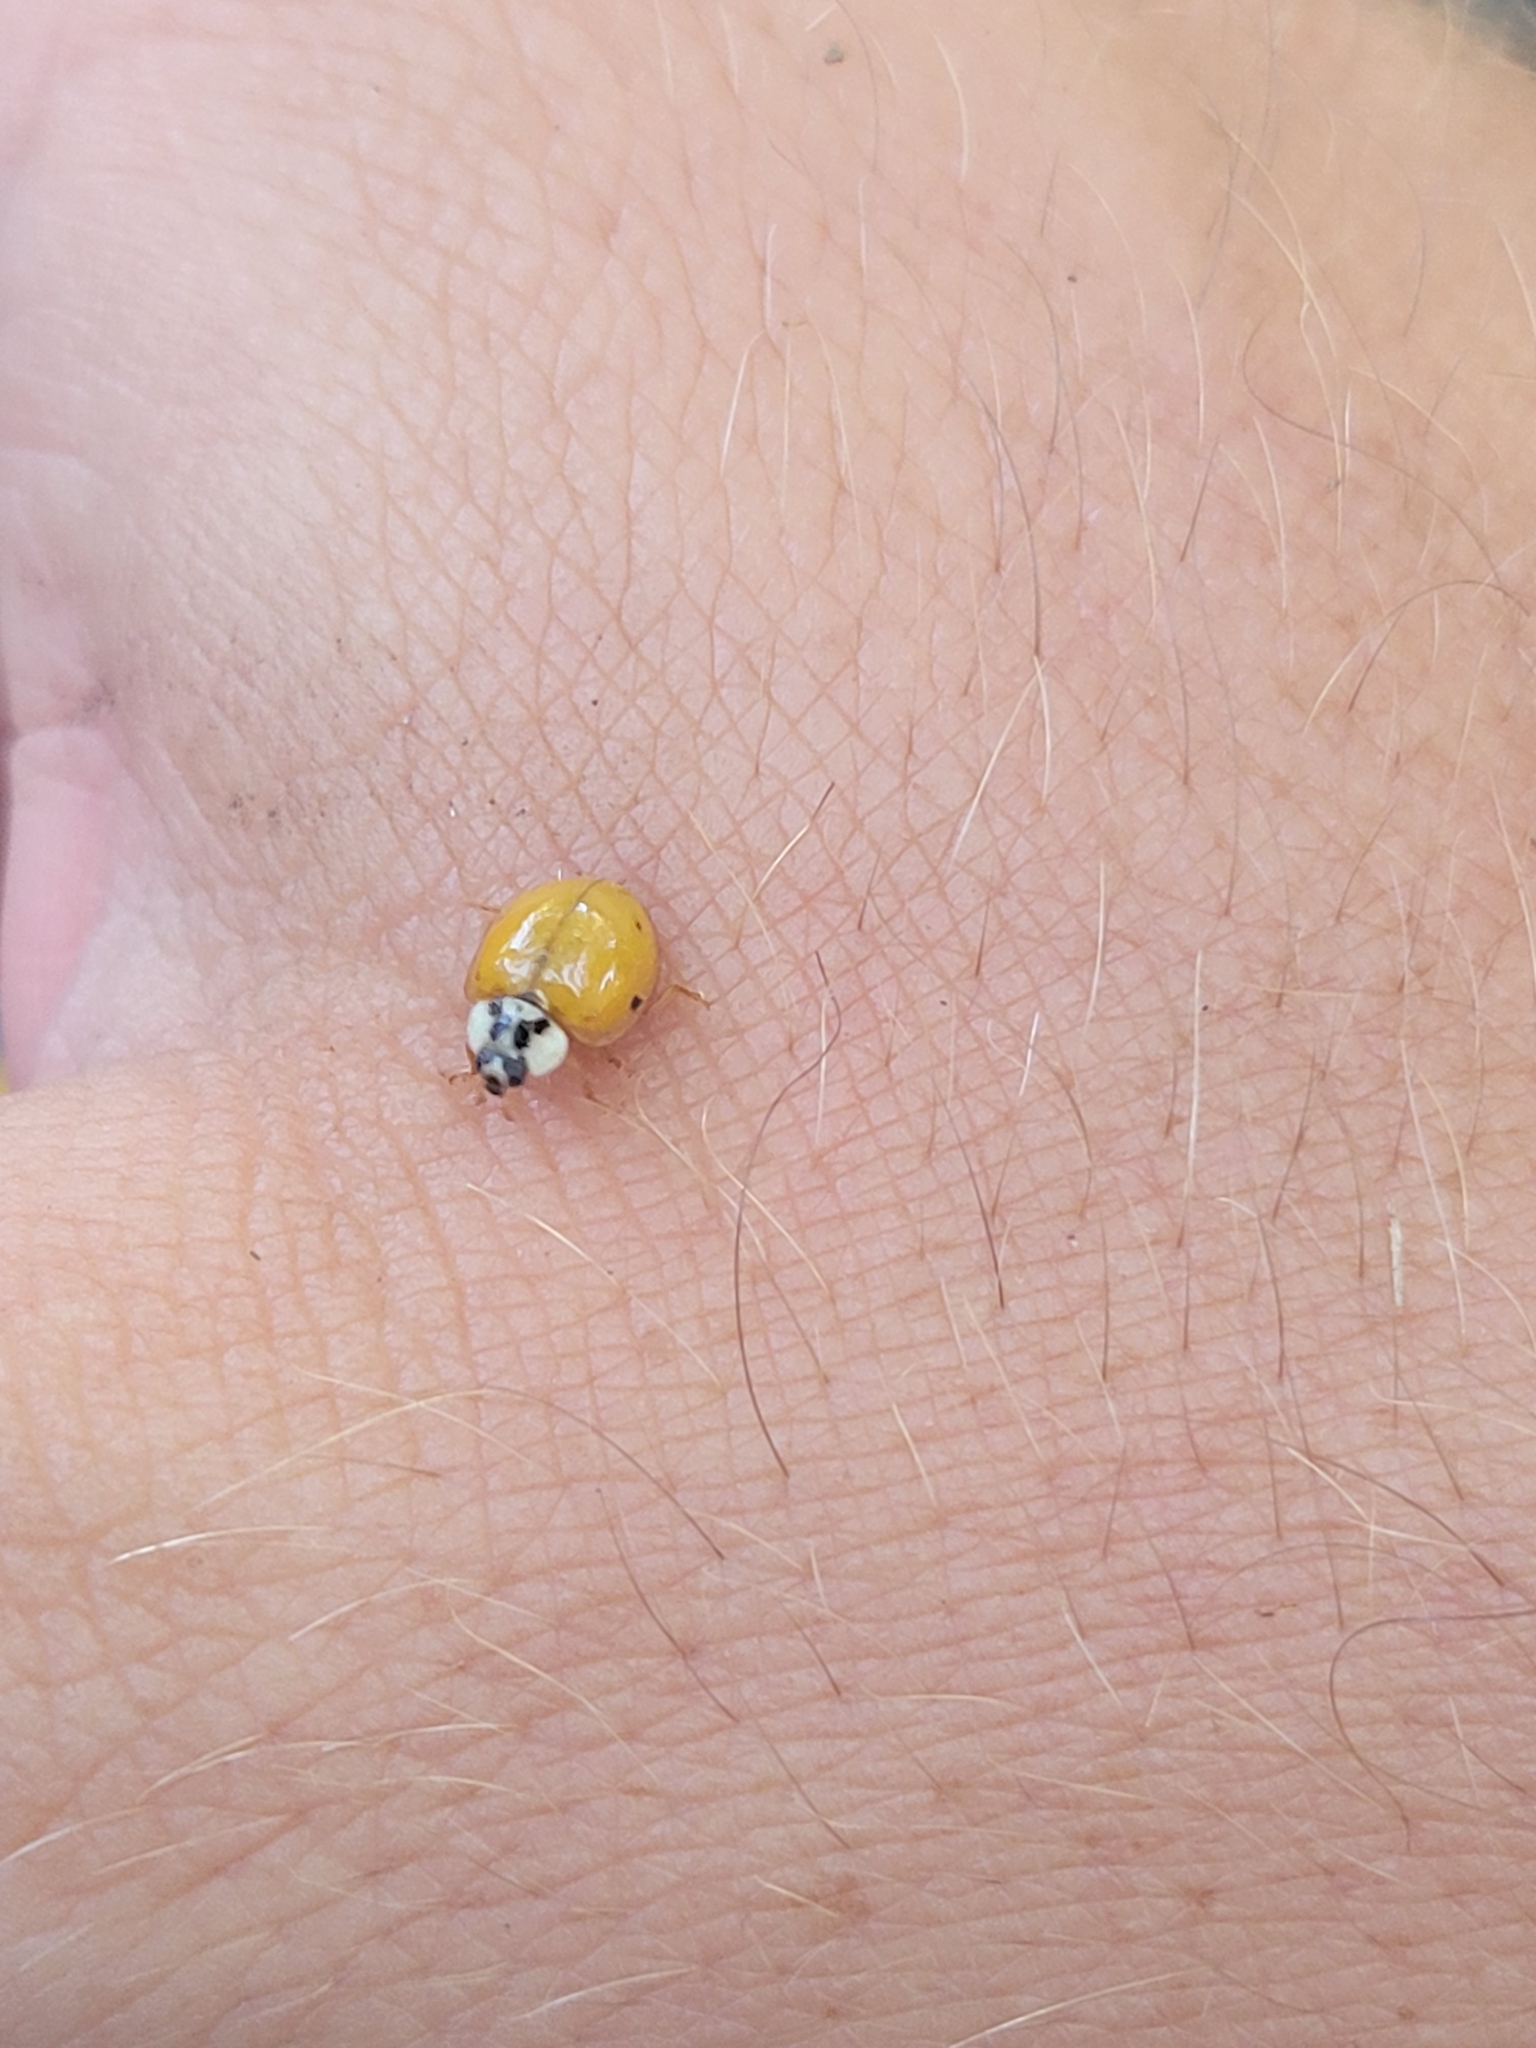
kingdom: Animalia
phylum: Arthropoda
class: Insecta
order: Coleoptera
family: Coccinellidae
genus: Harmonia
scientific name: Harmonia axyridis
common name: Harlequin ladybird
